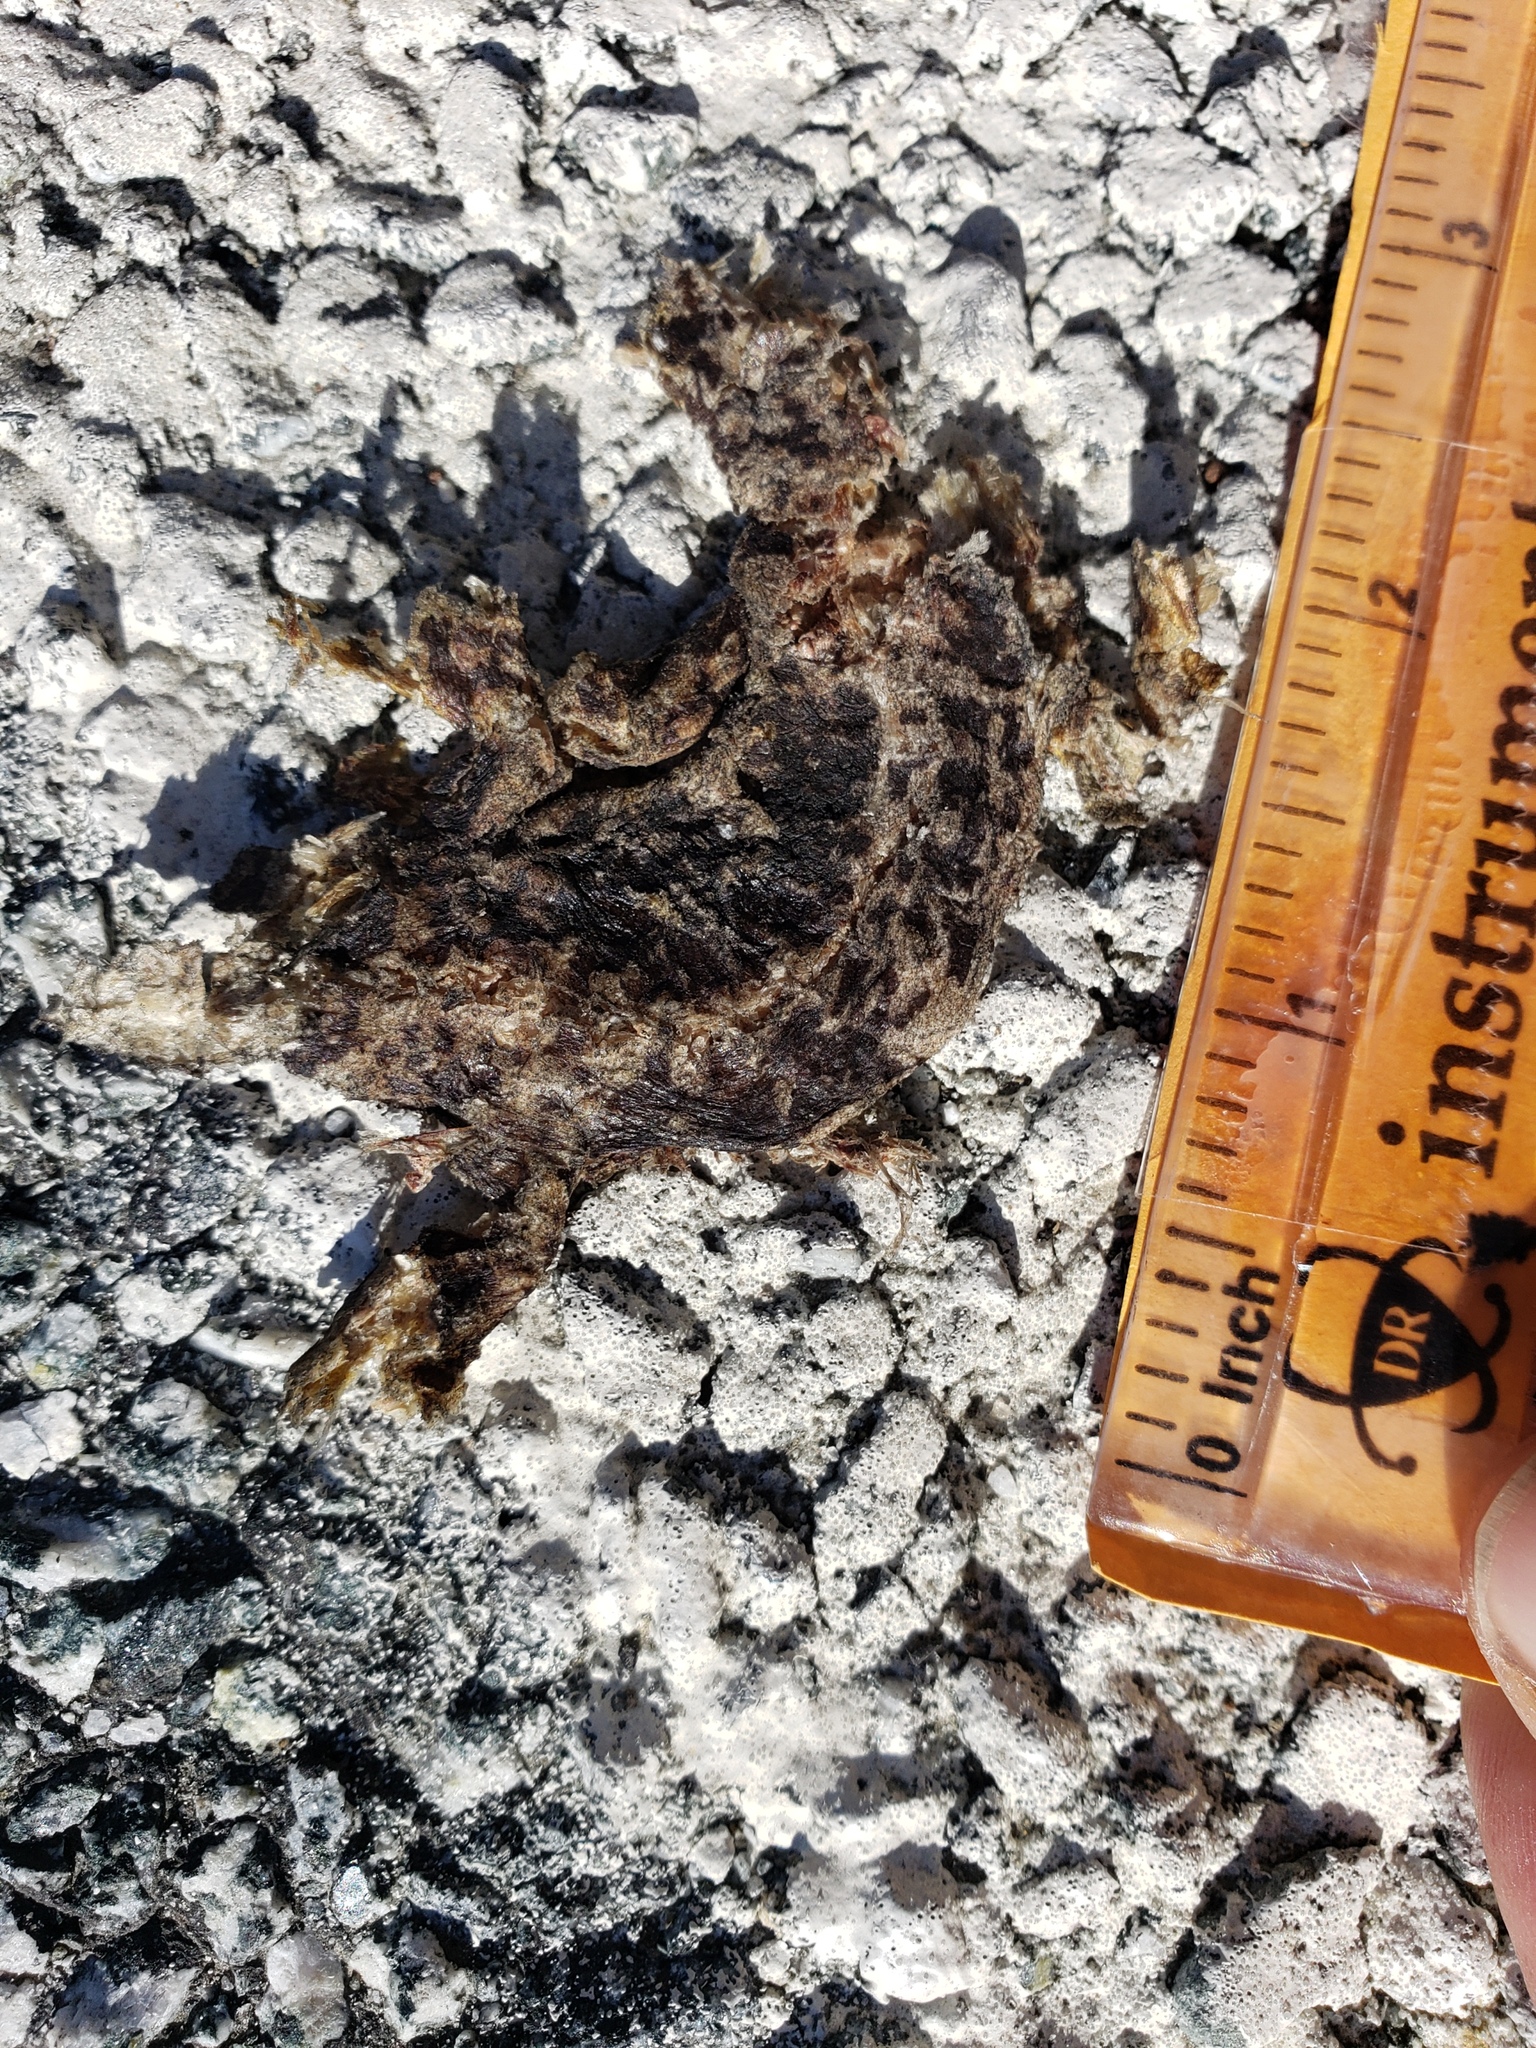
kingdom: Animalia
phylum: Chordata
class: Amphibia
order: Caudata
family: Salamandridae
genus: Taricha
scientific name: Taricha
